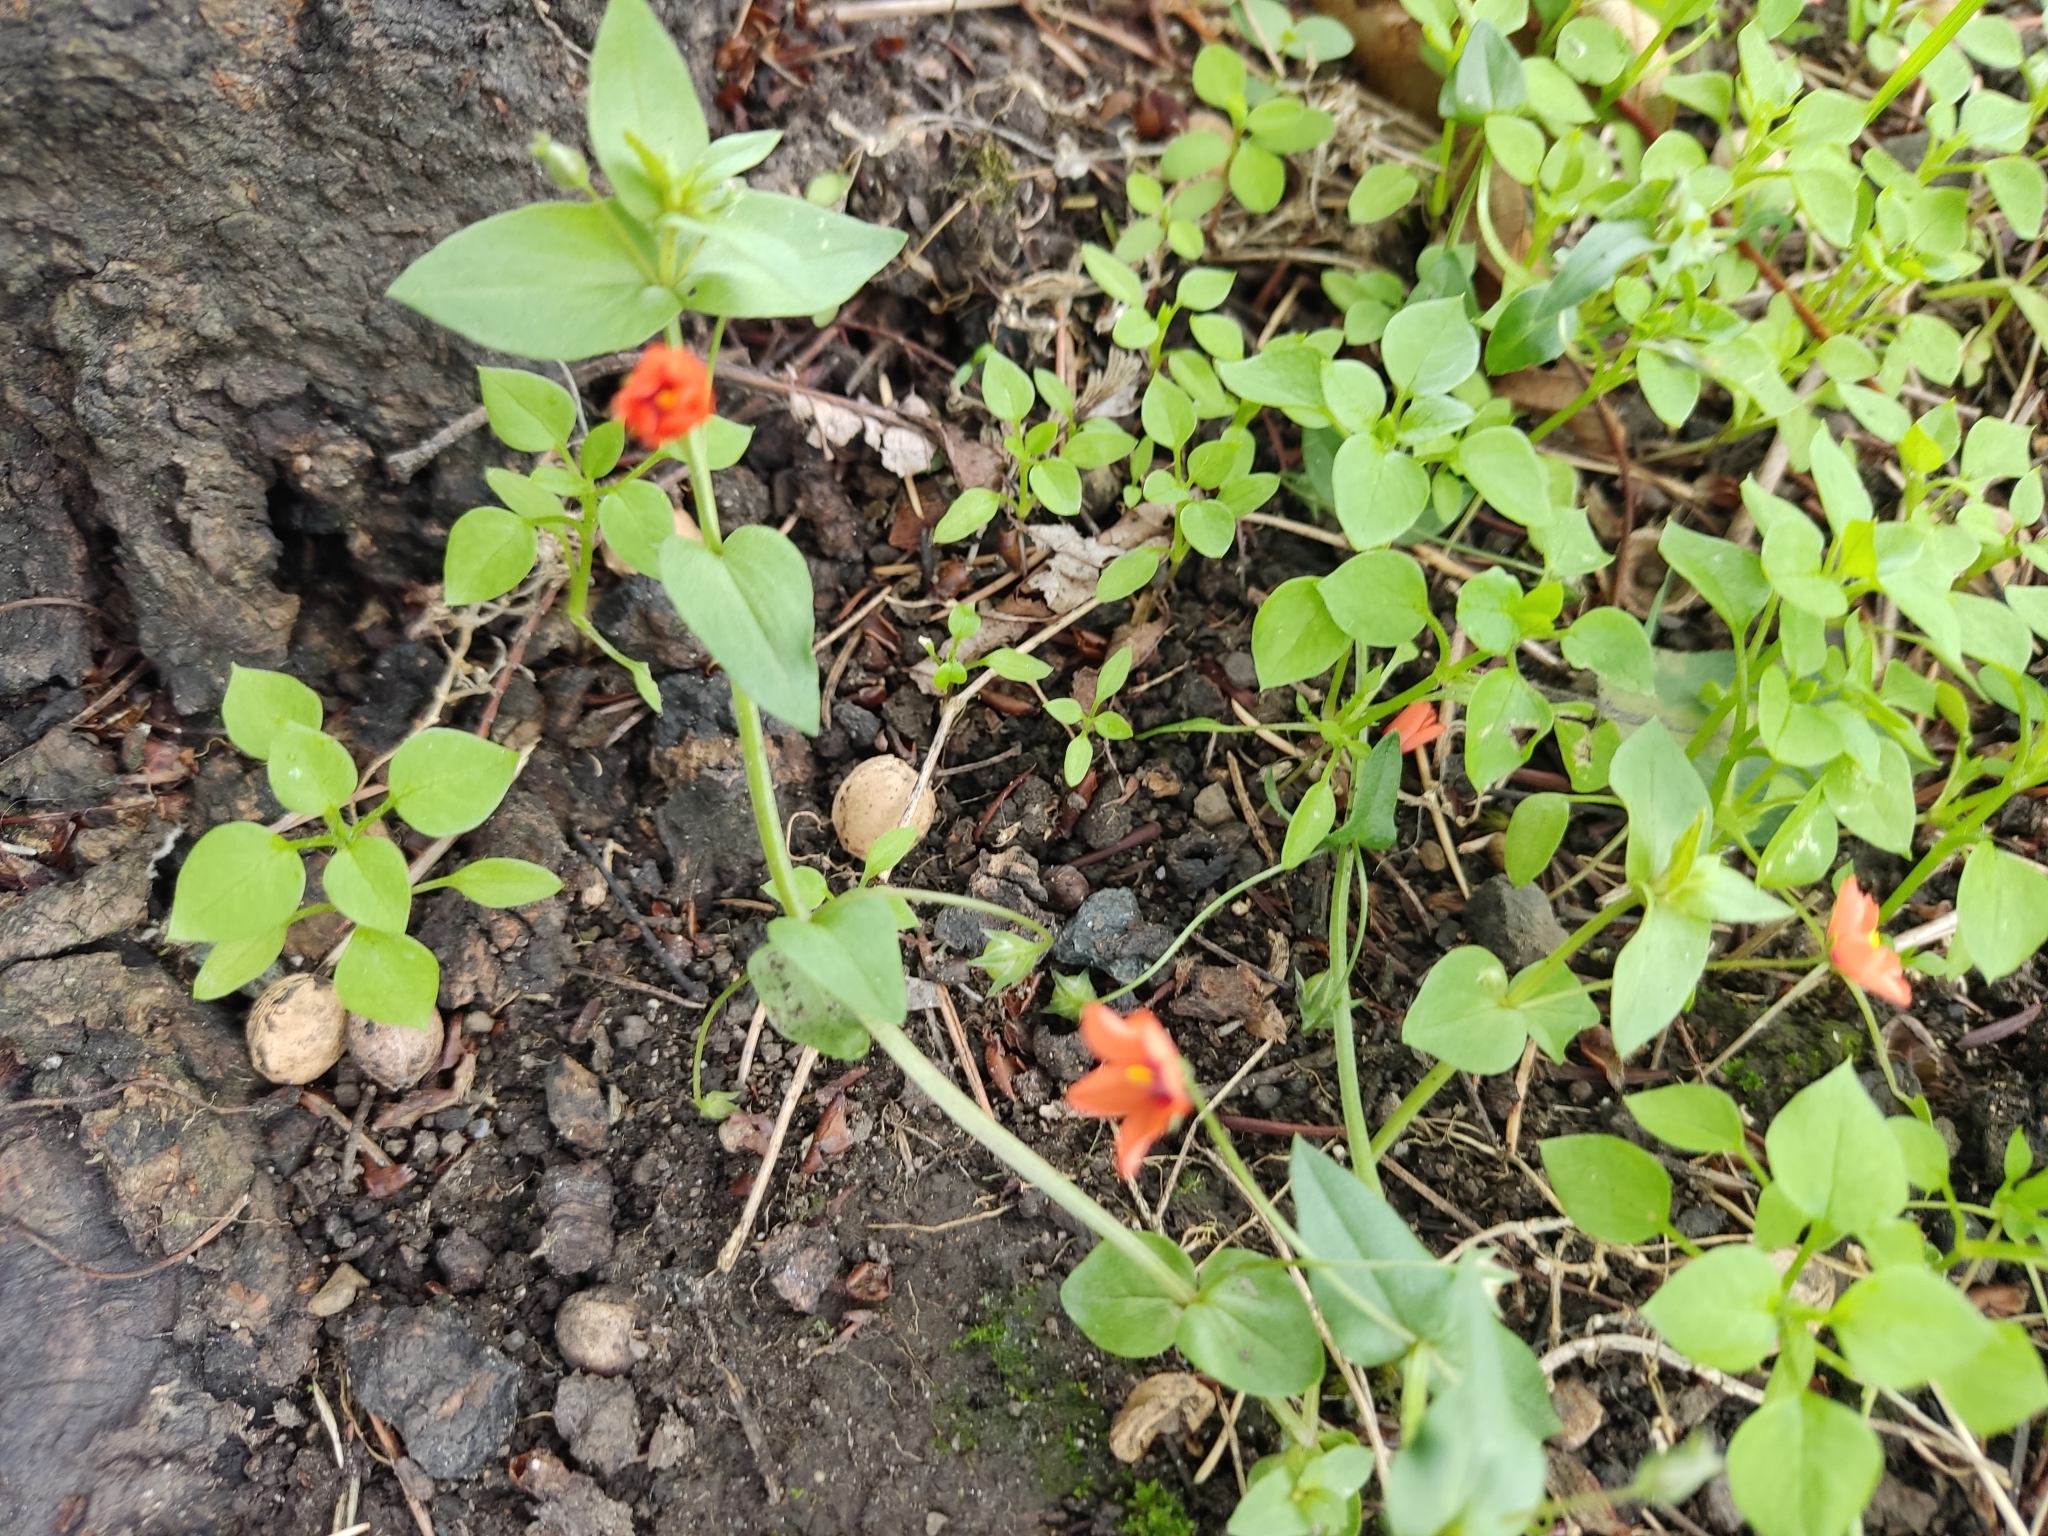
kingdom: Plantae
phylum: Tracheophyta
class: Magnoliopsida
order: Ericales
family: Primulaceae
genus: Lysimachia
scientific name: Lysimachia arvensis
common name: Scarlet pimpernel
